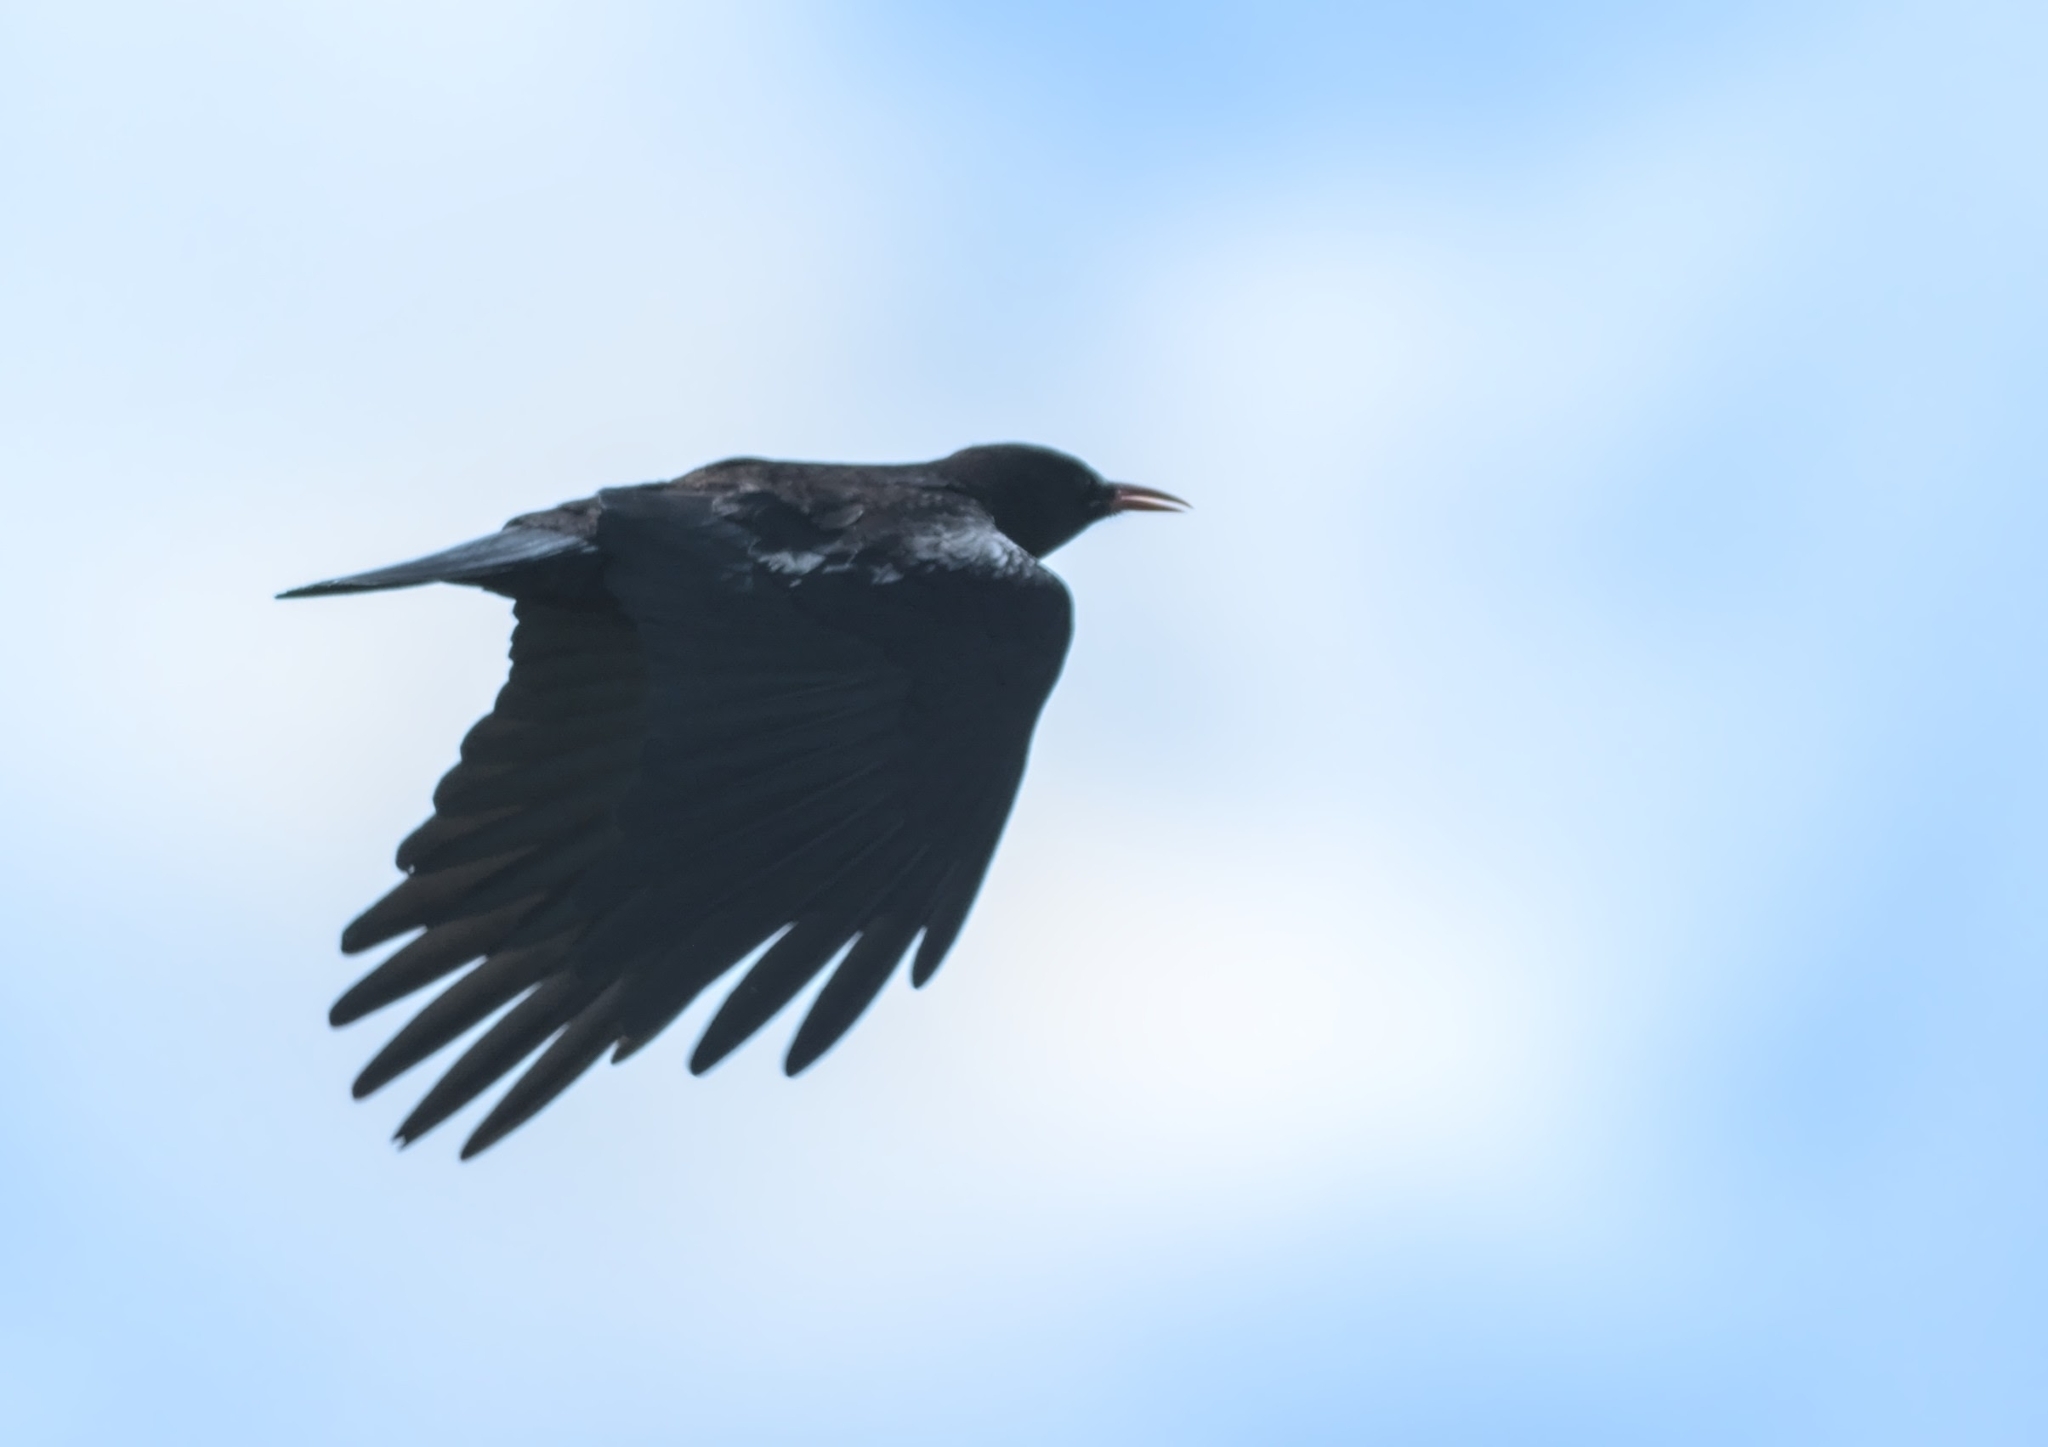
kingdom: Animalia
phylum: Chordata
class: Aves
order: Passeriformes
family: Corvidae
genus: Pyrrhocorax
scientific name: Pyrrhocorax pyrrhocorax
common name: Red-billed chough
